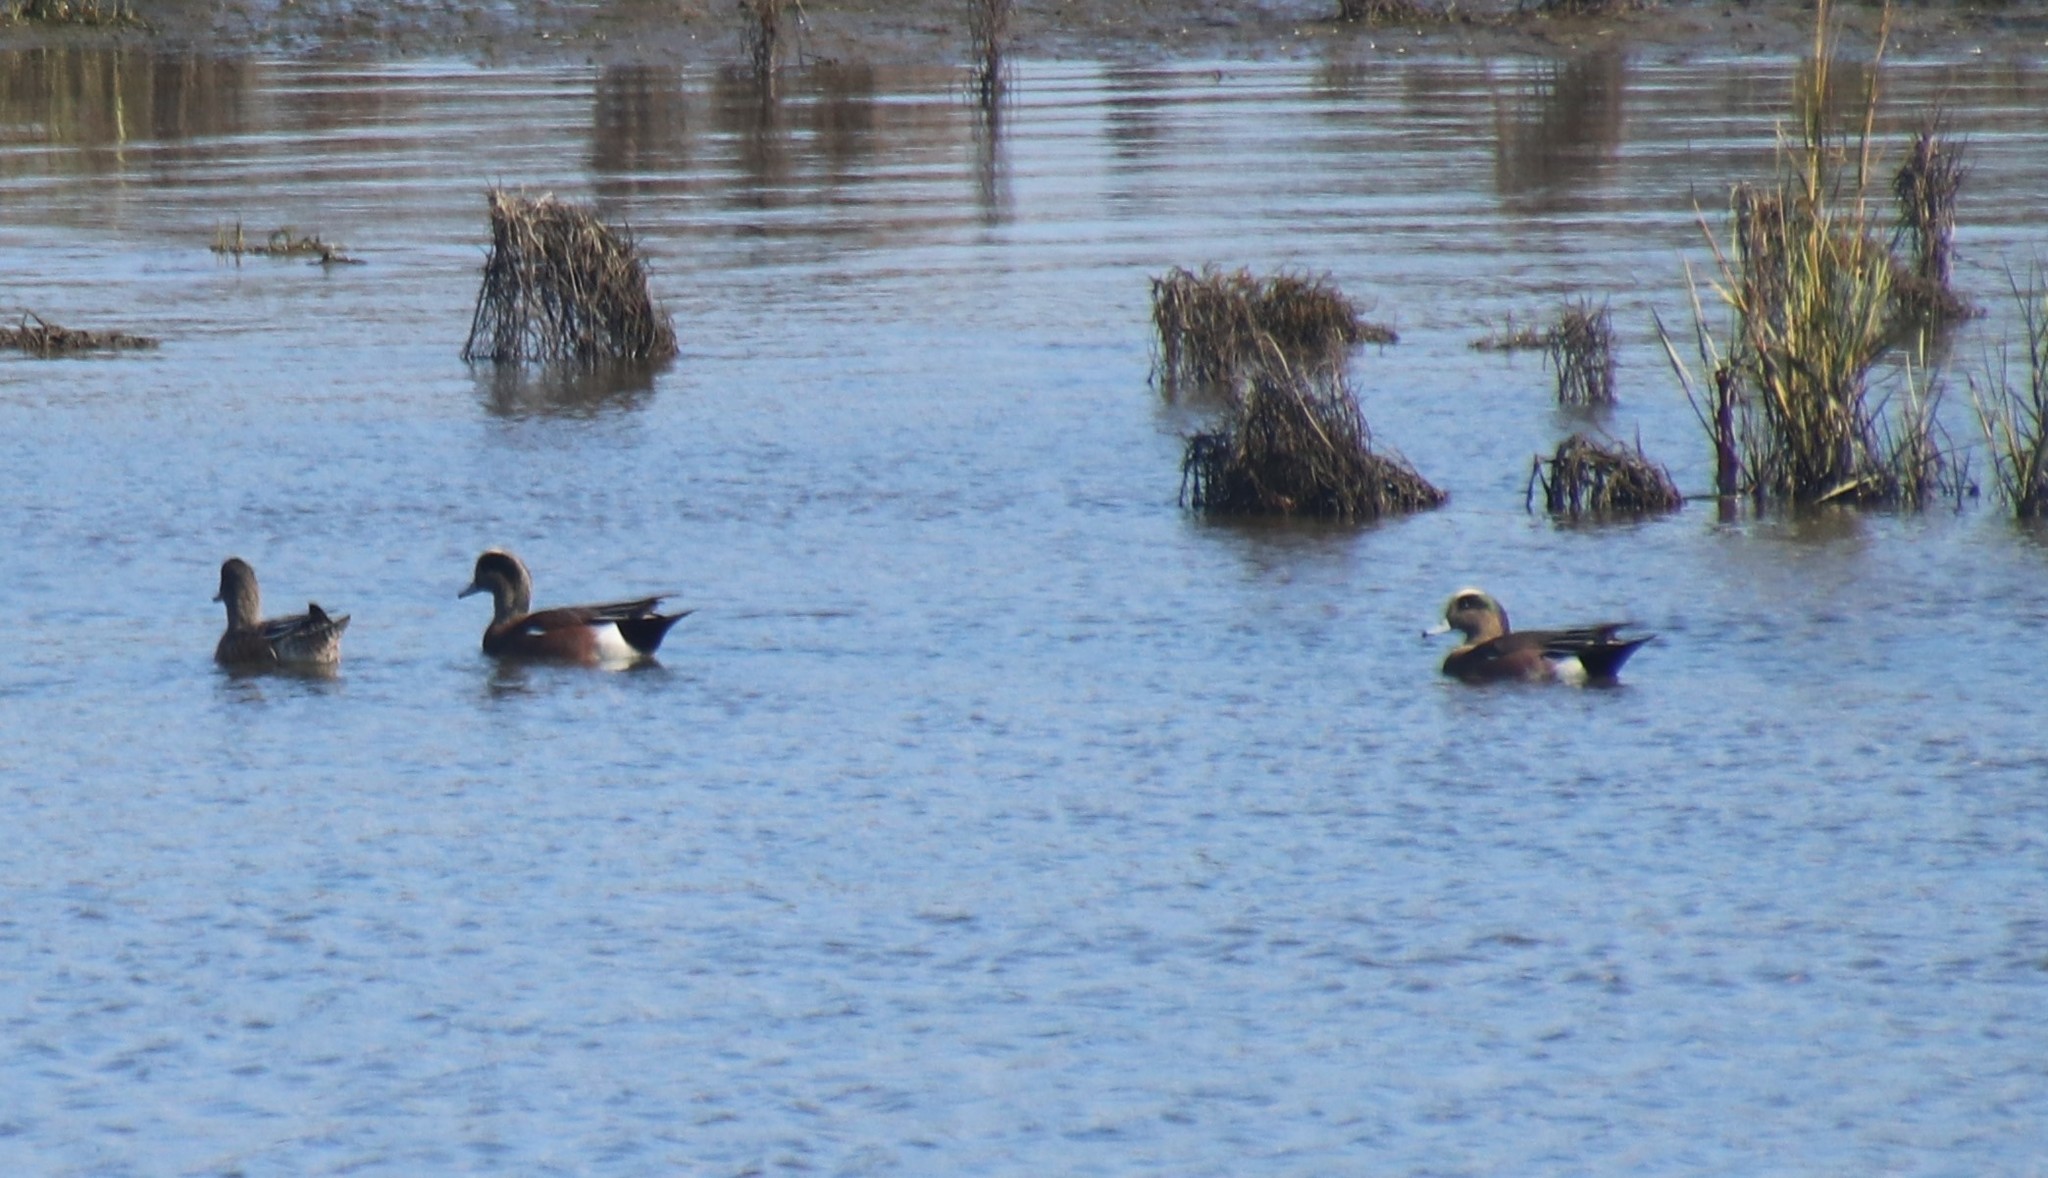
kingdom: Animalia
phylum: Chordata
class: Aves
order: Anseriformes
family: Anatidae
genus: Mareca
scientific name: Mareca americana
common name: American wigeon
